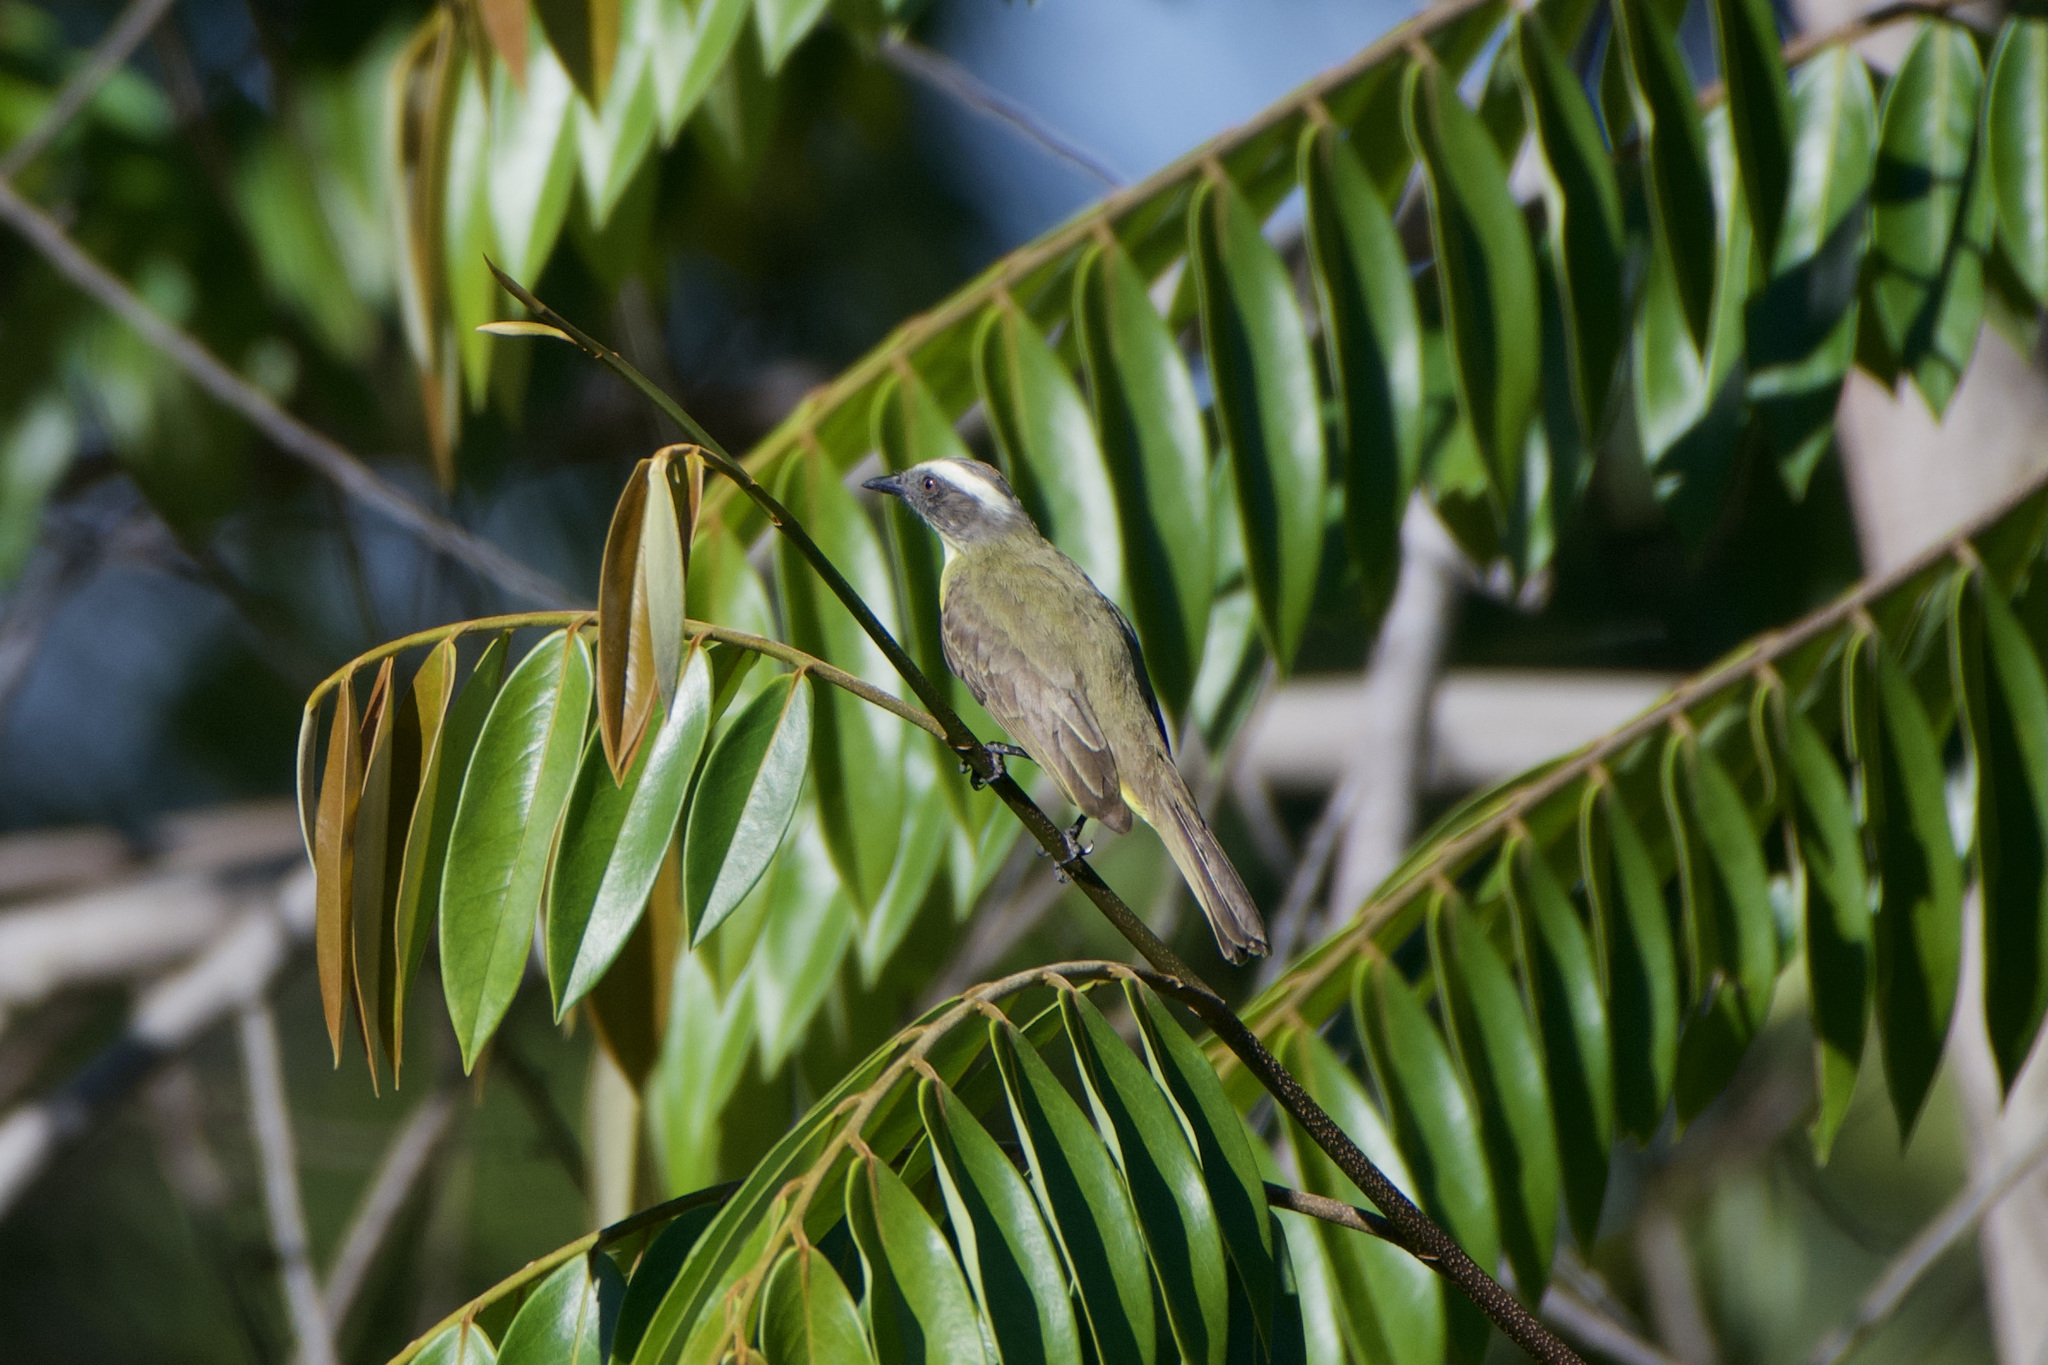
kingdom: Animalia
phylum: Chordata
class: Aves
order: Passeriformes
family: Tyrannidae
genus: Myiozetetes
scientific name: Myiozetetes similis
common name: Social flycatcher
